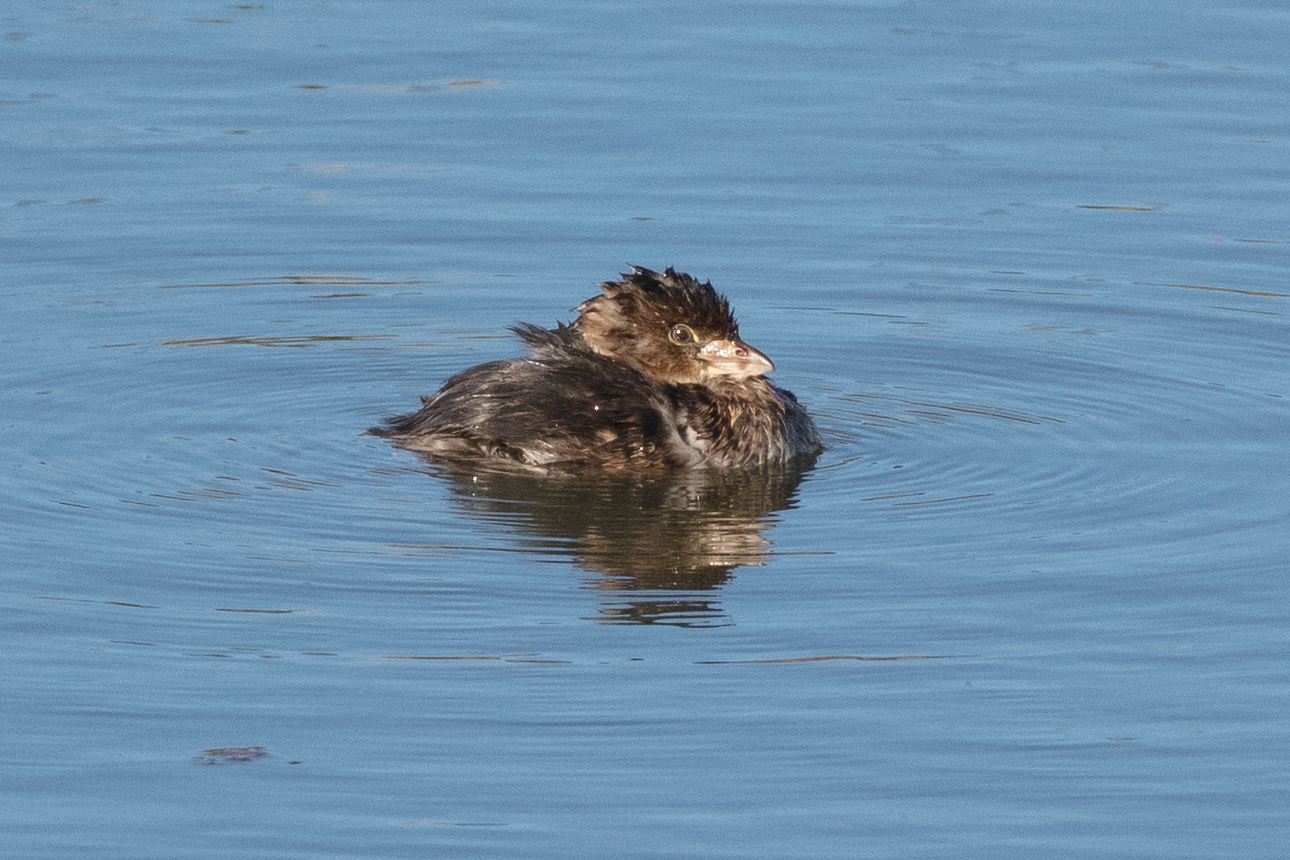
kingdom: Animalia
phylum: Chordata
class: Aves
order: Podicipediformes
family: Podicipedidae
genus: Podilymbus
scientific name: Podilymbus podiceps
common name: Pied-billed grebe
